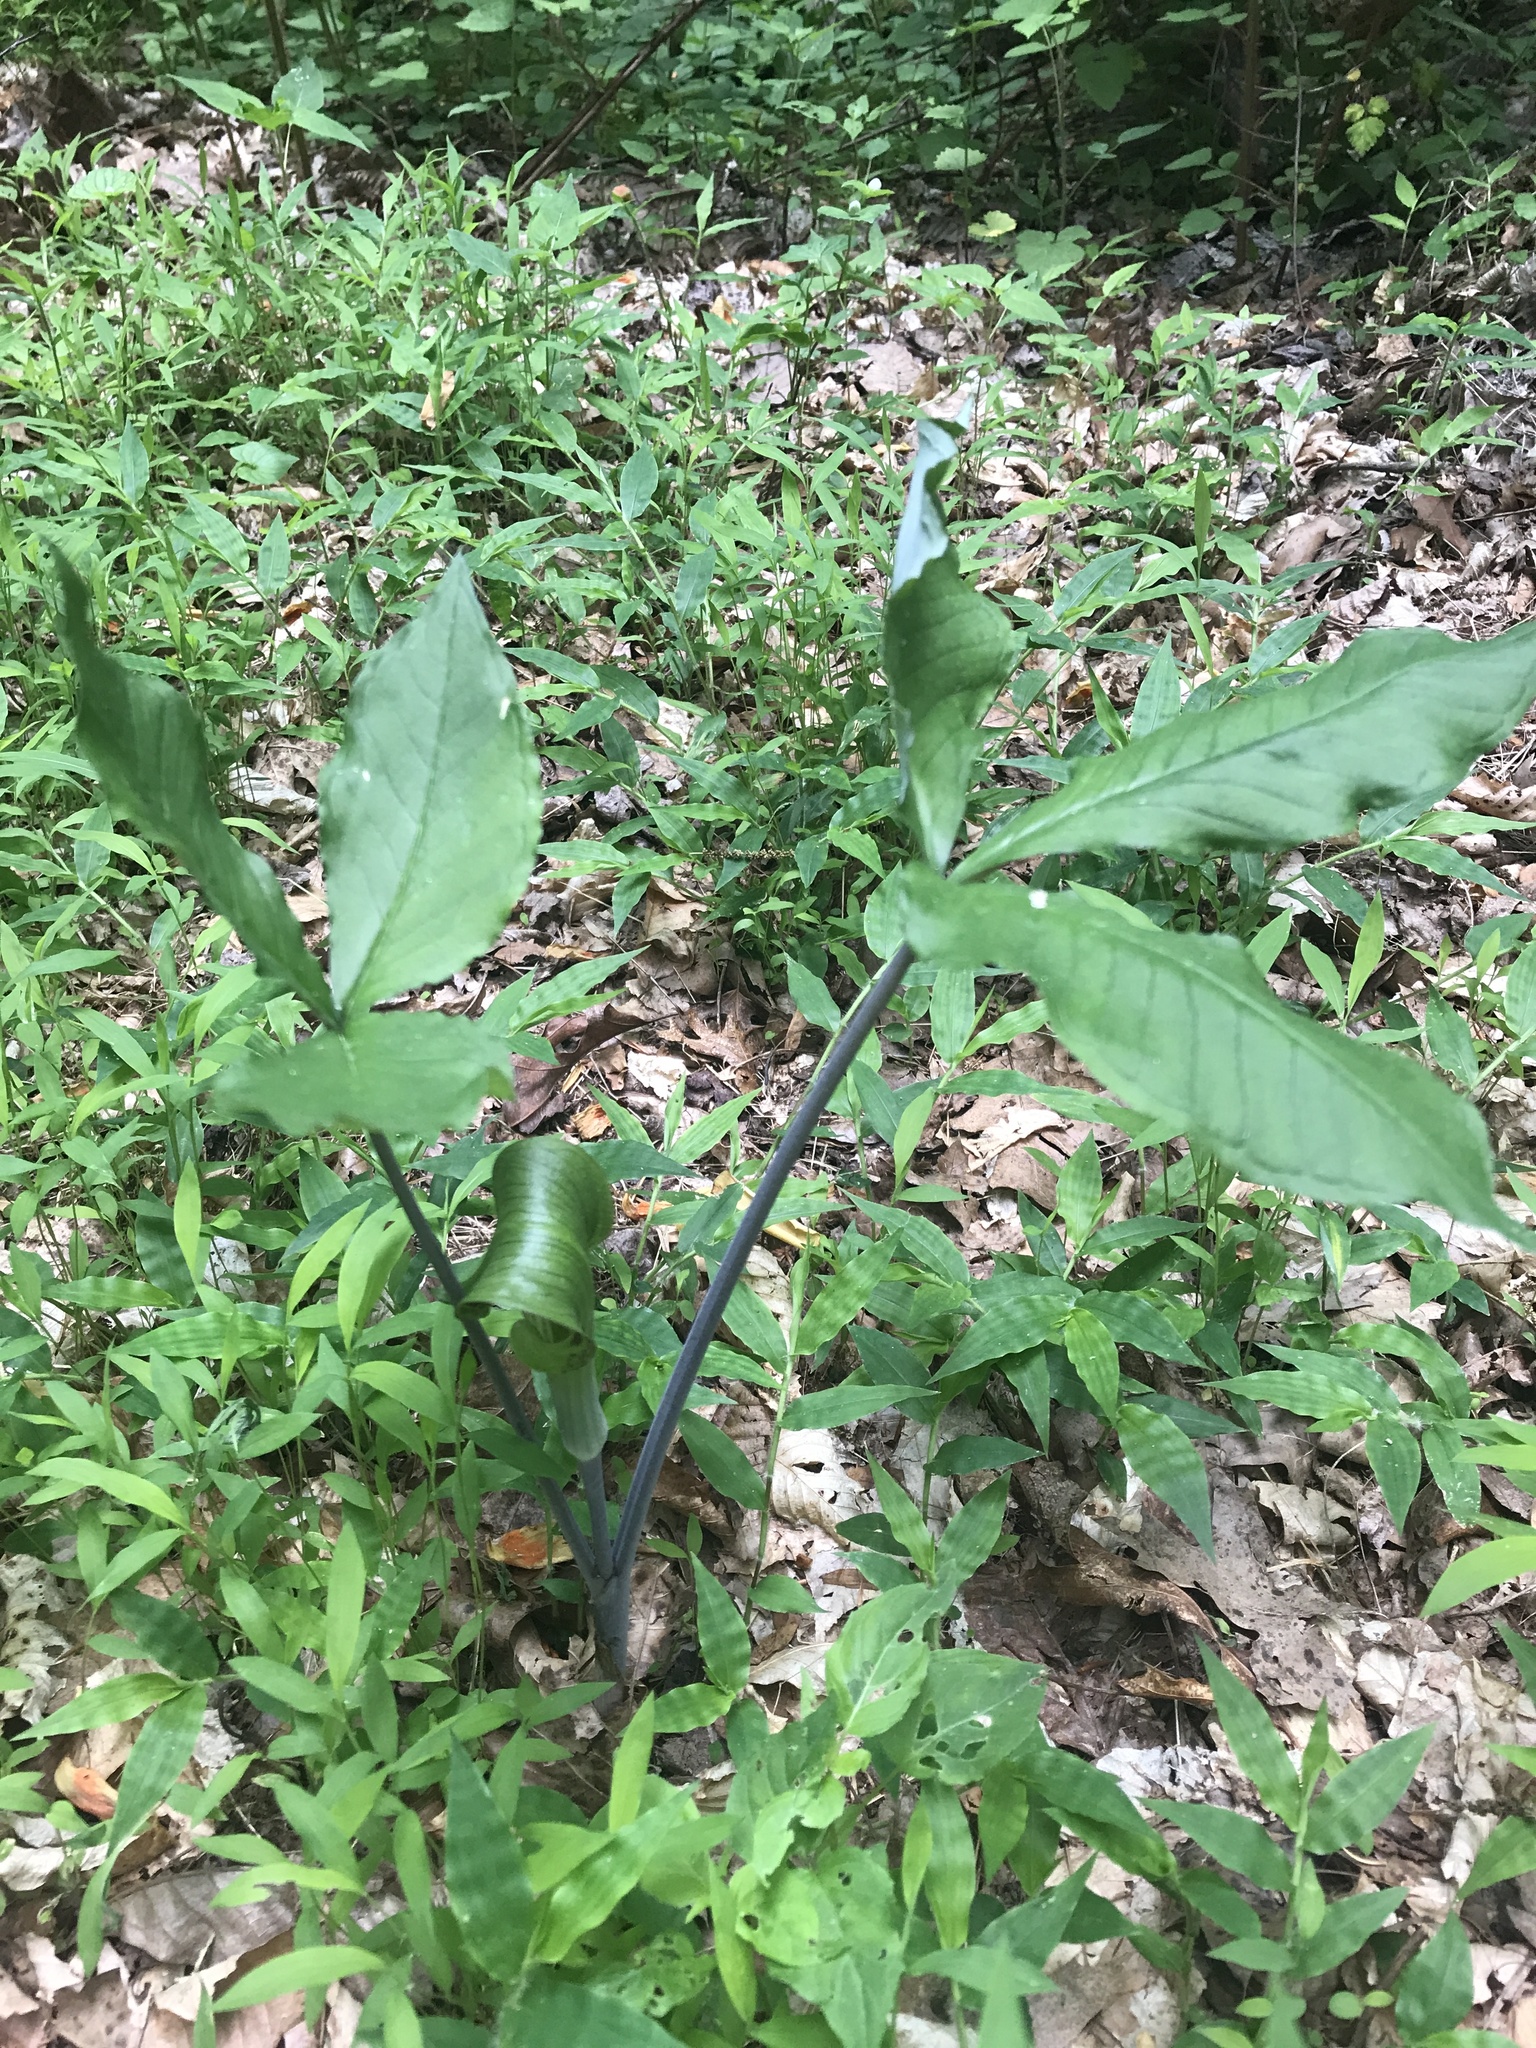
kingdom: Plantae
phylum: Tracheophyta
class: Liliopsida
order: Alismatales
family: Araceae
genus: Arisaema
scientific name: Arisaema triphyllum
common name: Jack-in-the-pulpit
